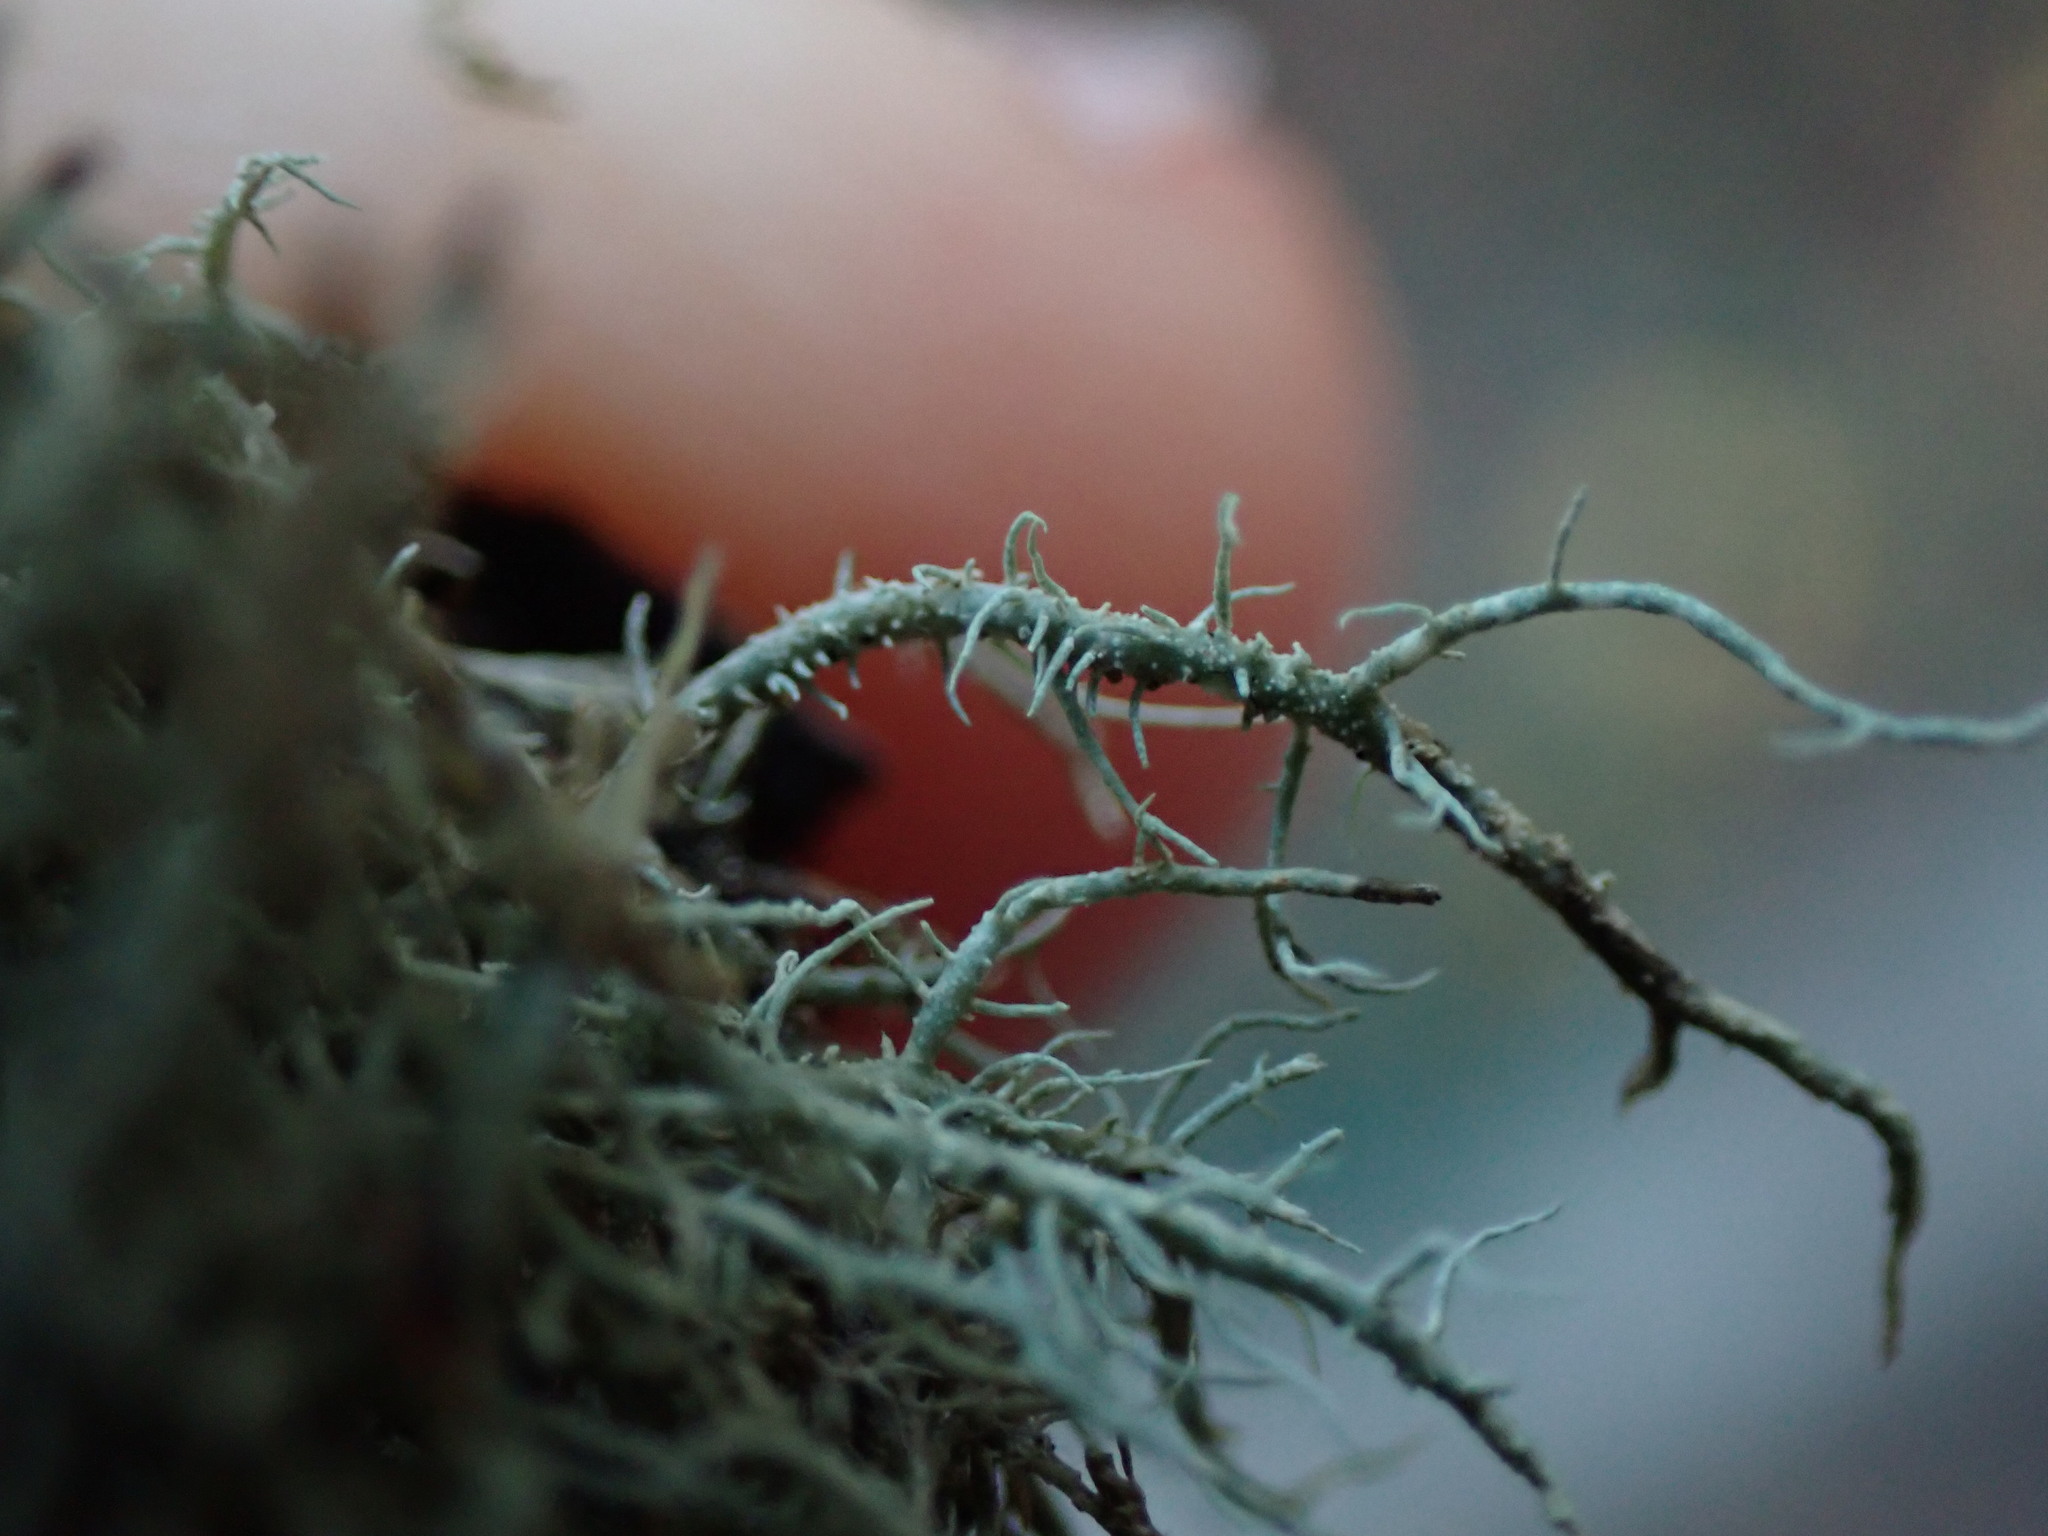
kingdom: Fungi
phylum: Ascomycota
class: Lecanoromycetes
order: Lecanorales
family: Parmeliaceae
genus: Usnea
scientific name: Usnea hirta
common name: Bristly beard lichen
